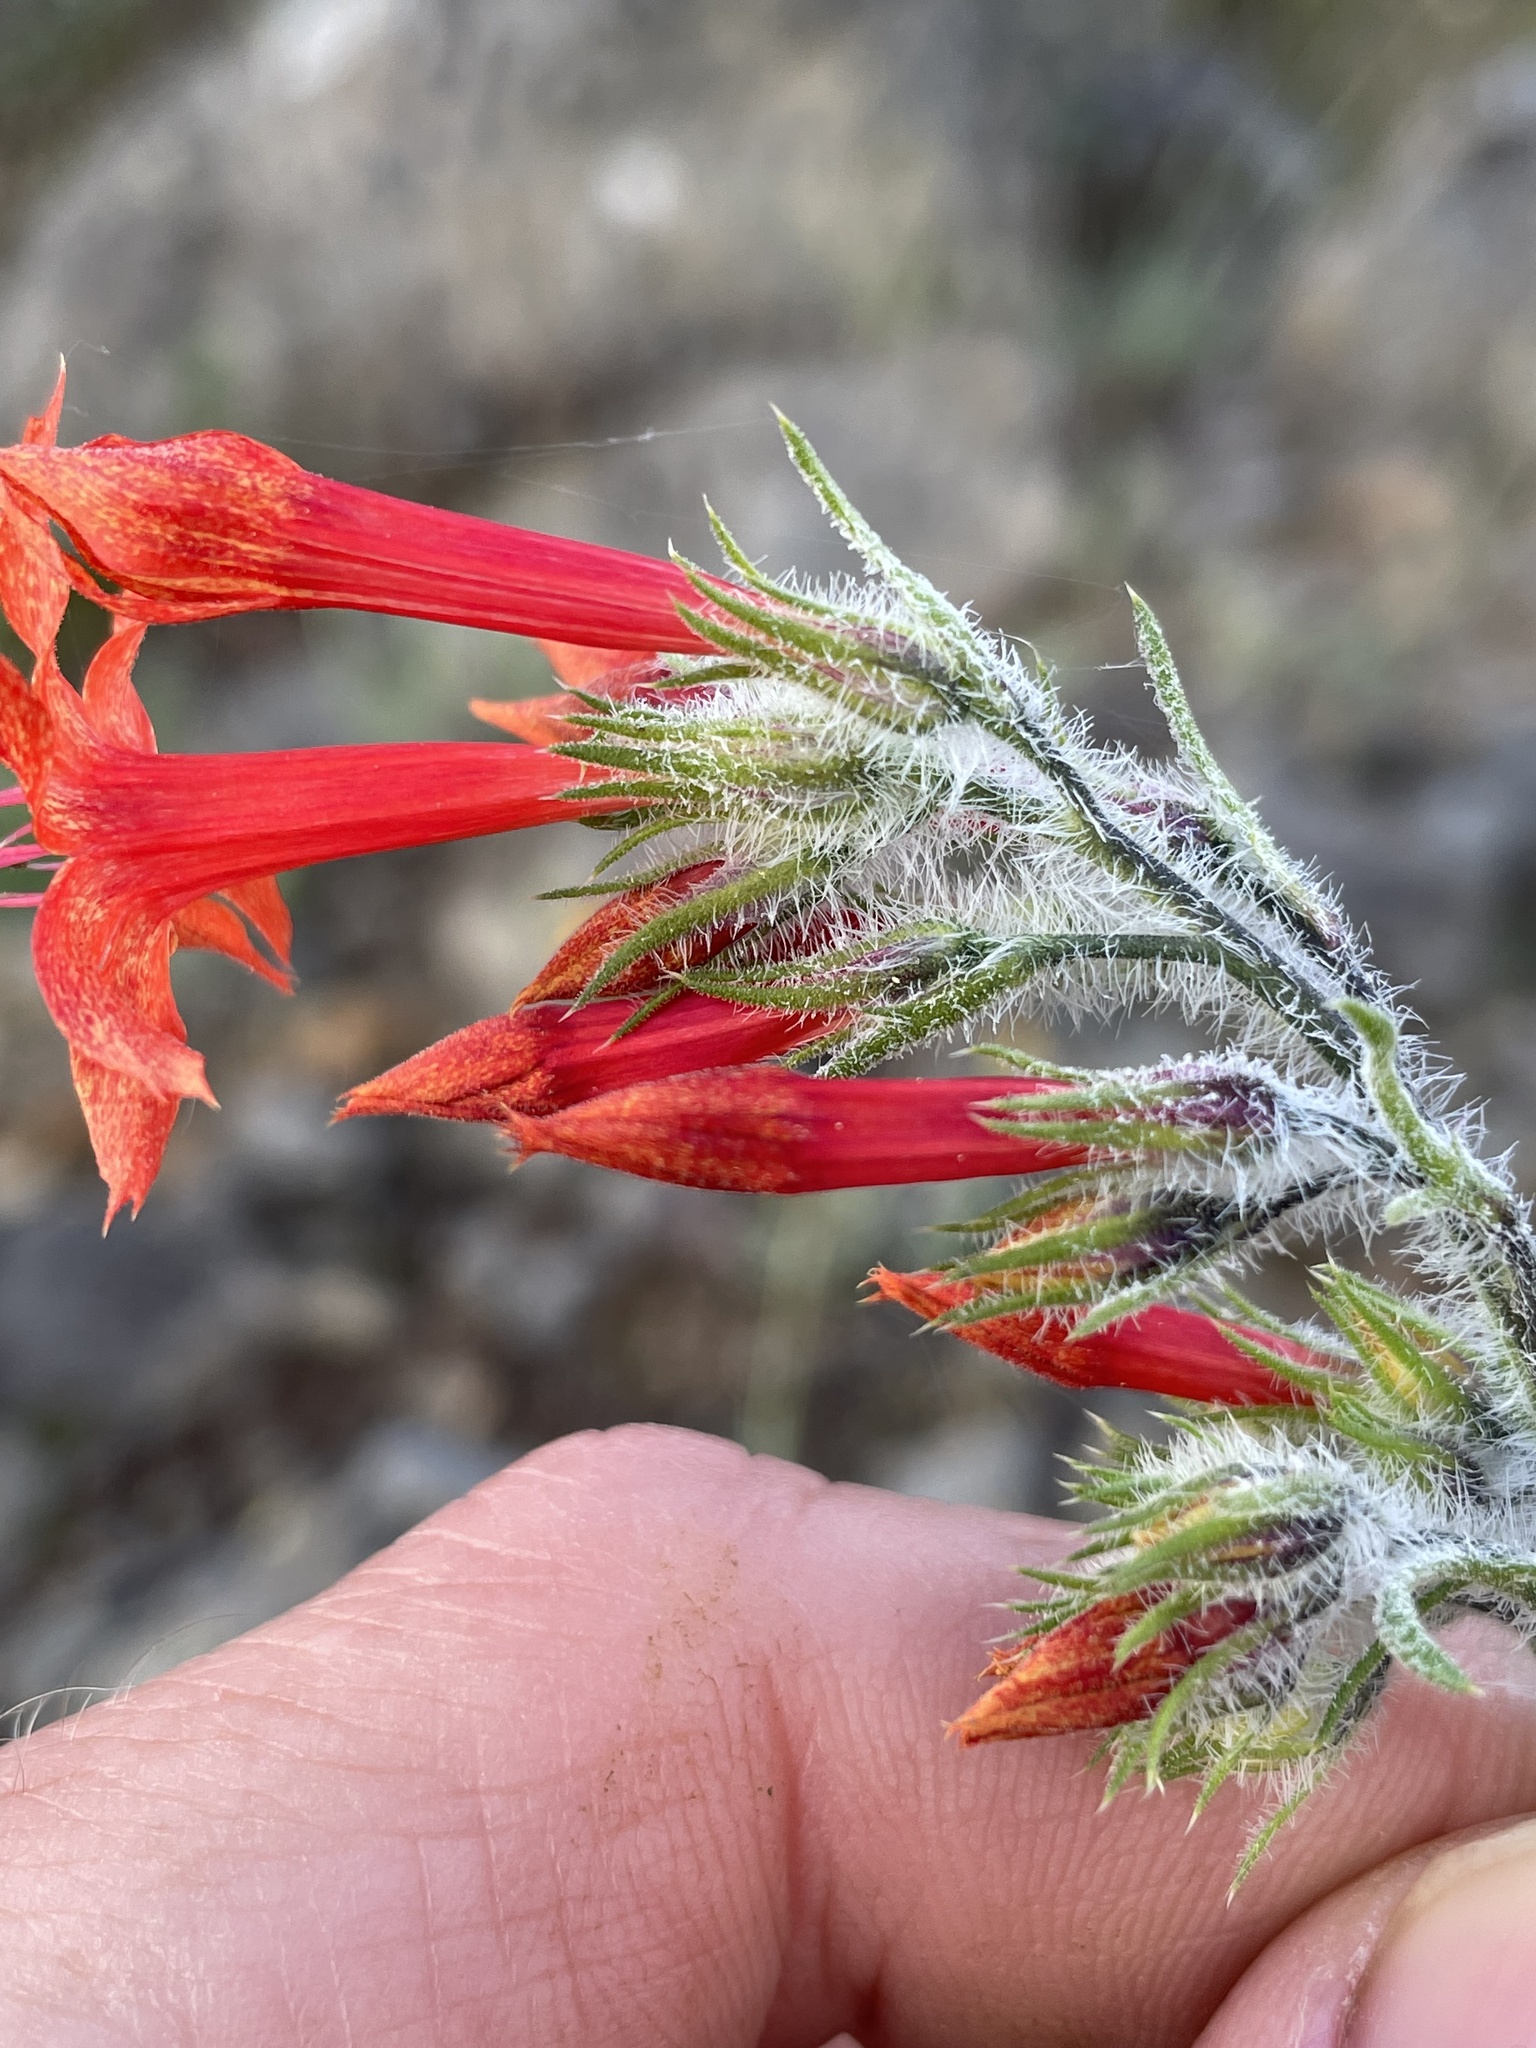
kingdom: Plantae
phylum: Tracheophyta
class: Magnoliopsida
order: Ericales
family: Polemoniaceae
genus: Ipomopsis
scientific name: Ipomopsis aggregata
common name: Scarlet gilia
